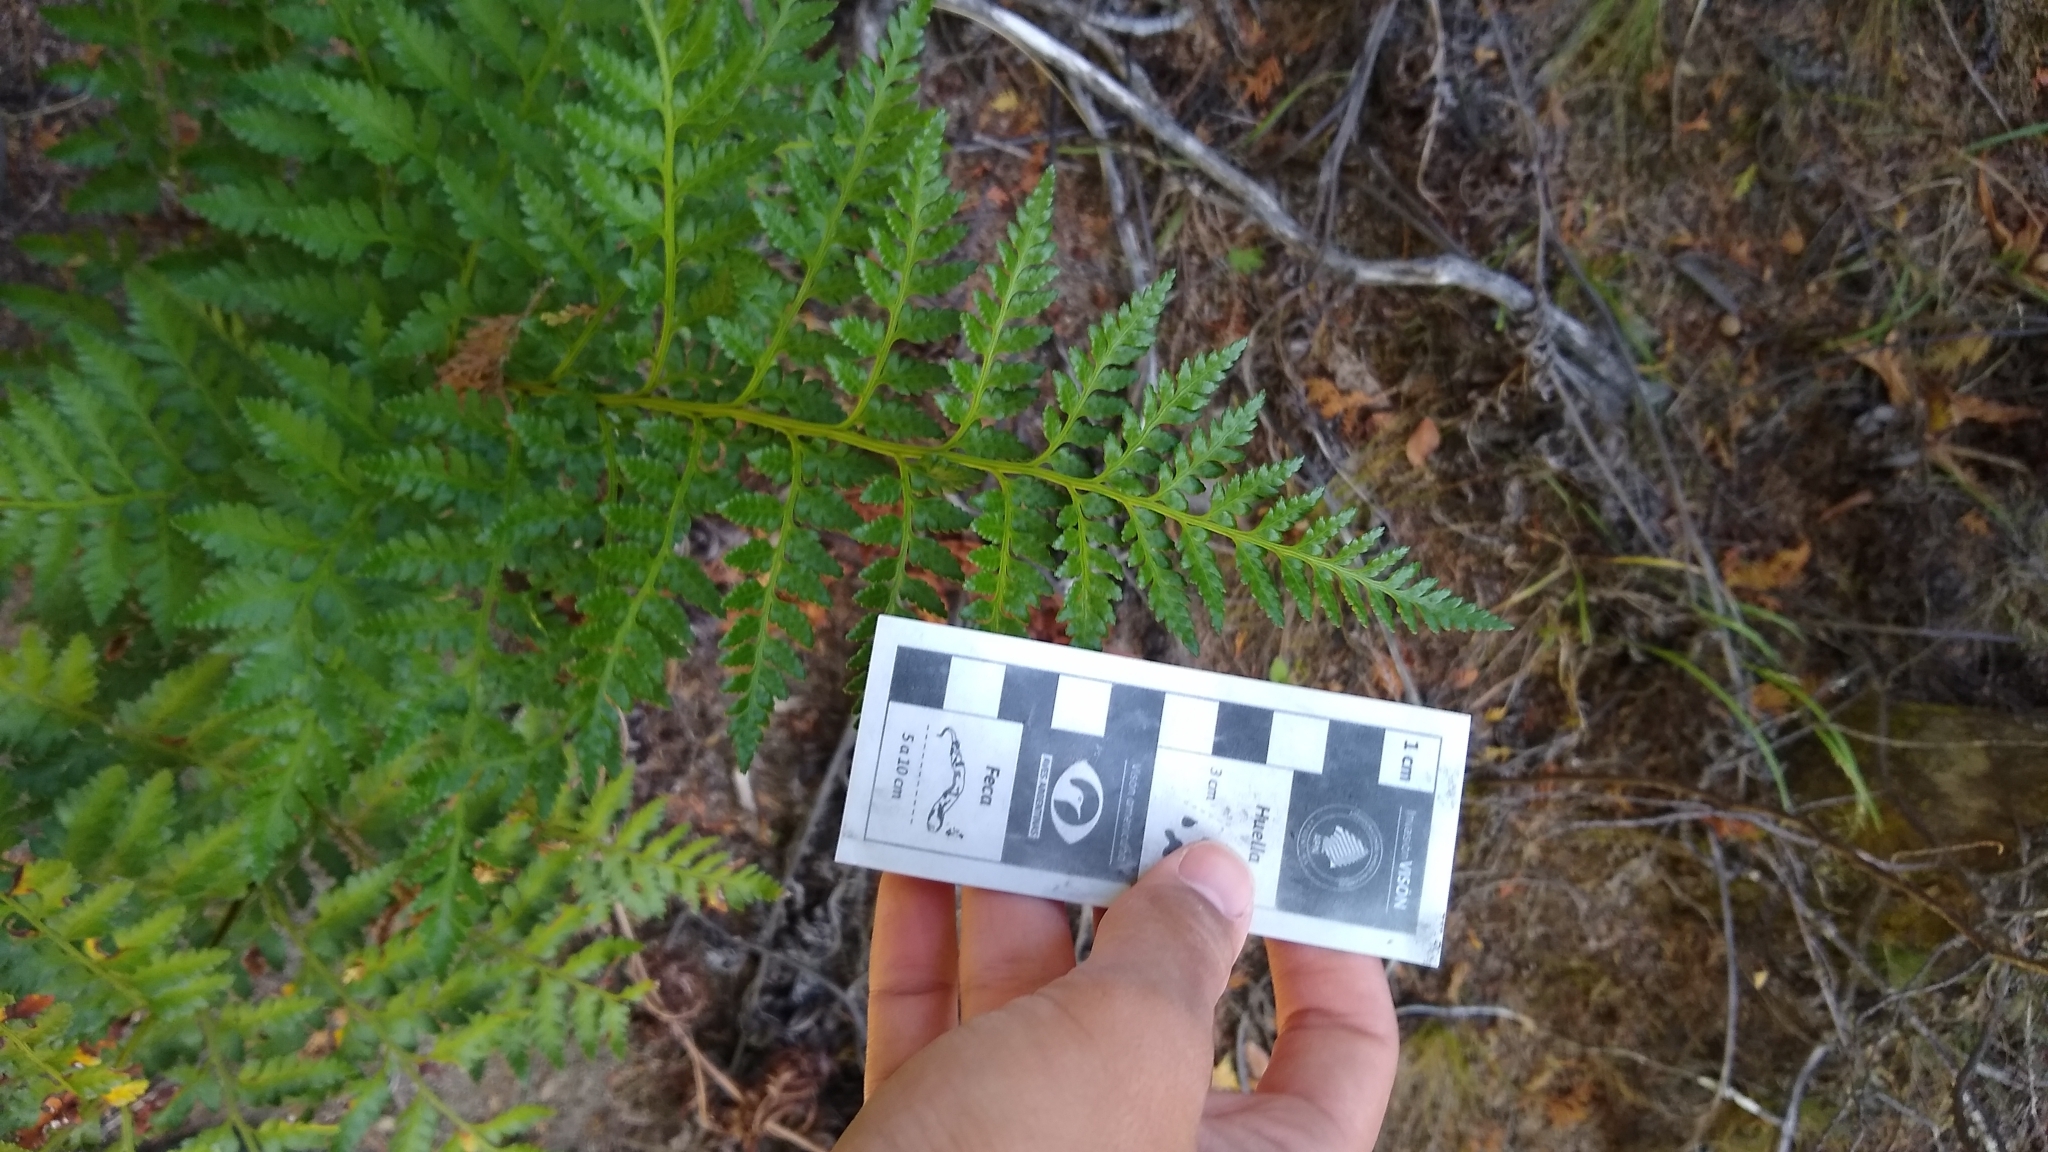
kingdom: Plantae
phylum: Tracheophyta
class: Polypodiopsida
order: Polypodiales
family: Dryopteridaceae
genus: Rumohra
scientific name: Rumohra adiantiformis
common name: Leather fern
